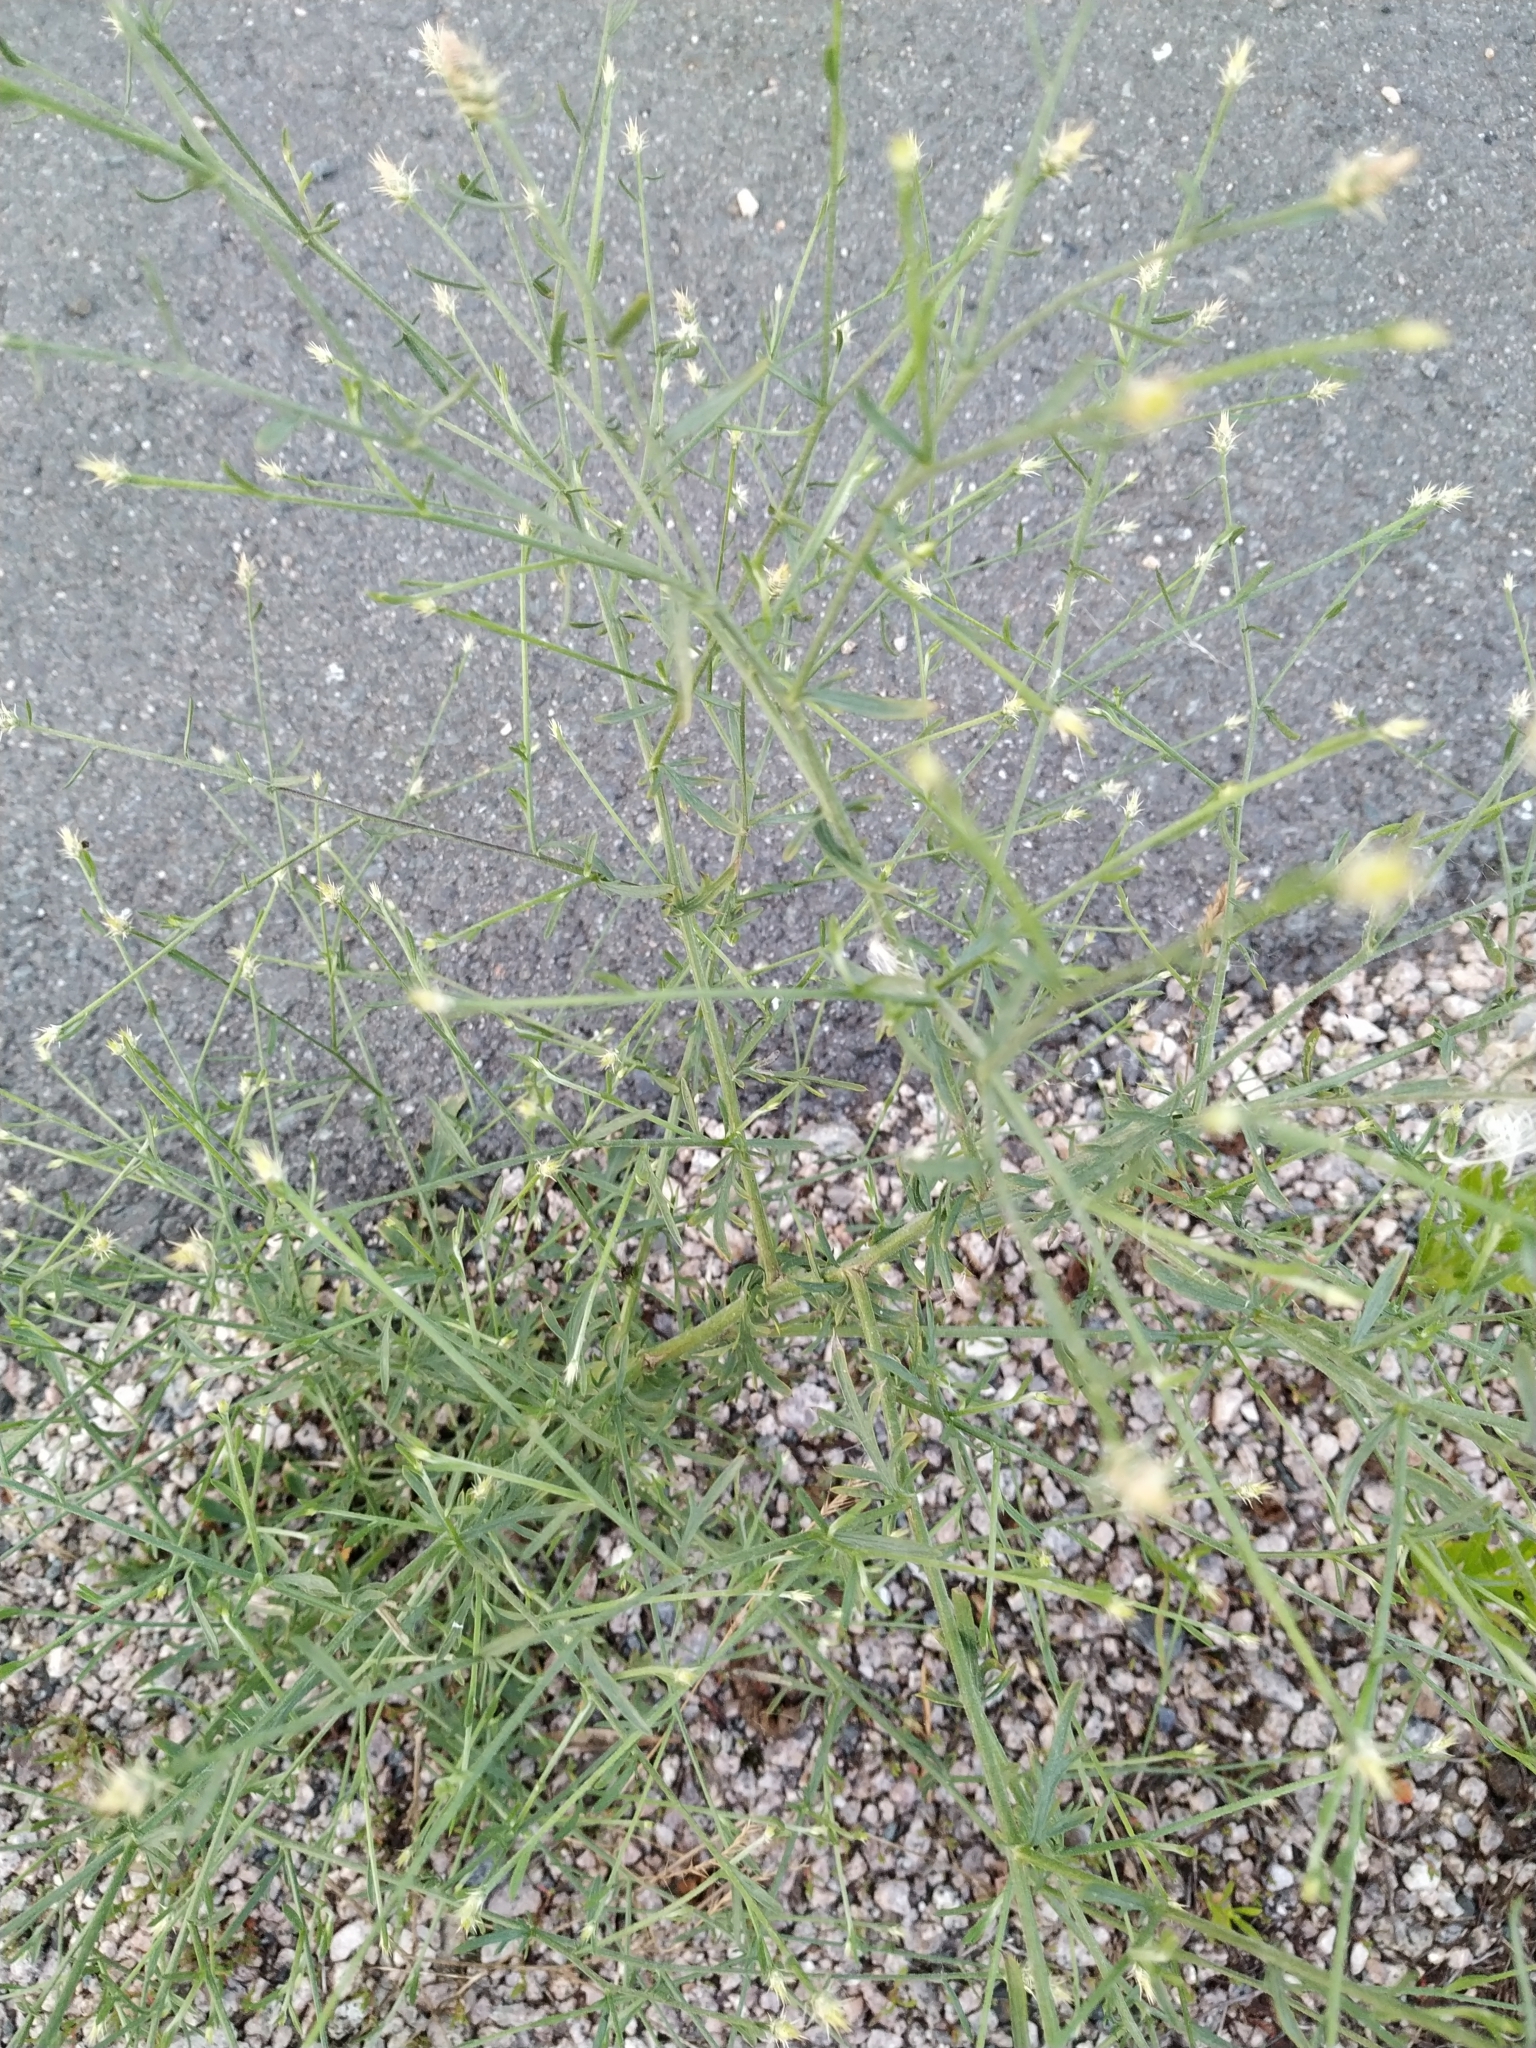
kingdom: Plantae
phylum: Tracheophyta
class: Magnoliopsida
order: Asterales
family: Asteraceae
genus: Centaurea
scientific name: Centaurea diffusa
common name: Diffuse knapweed
